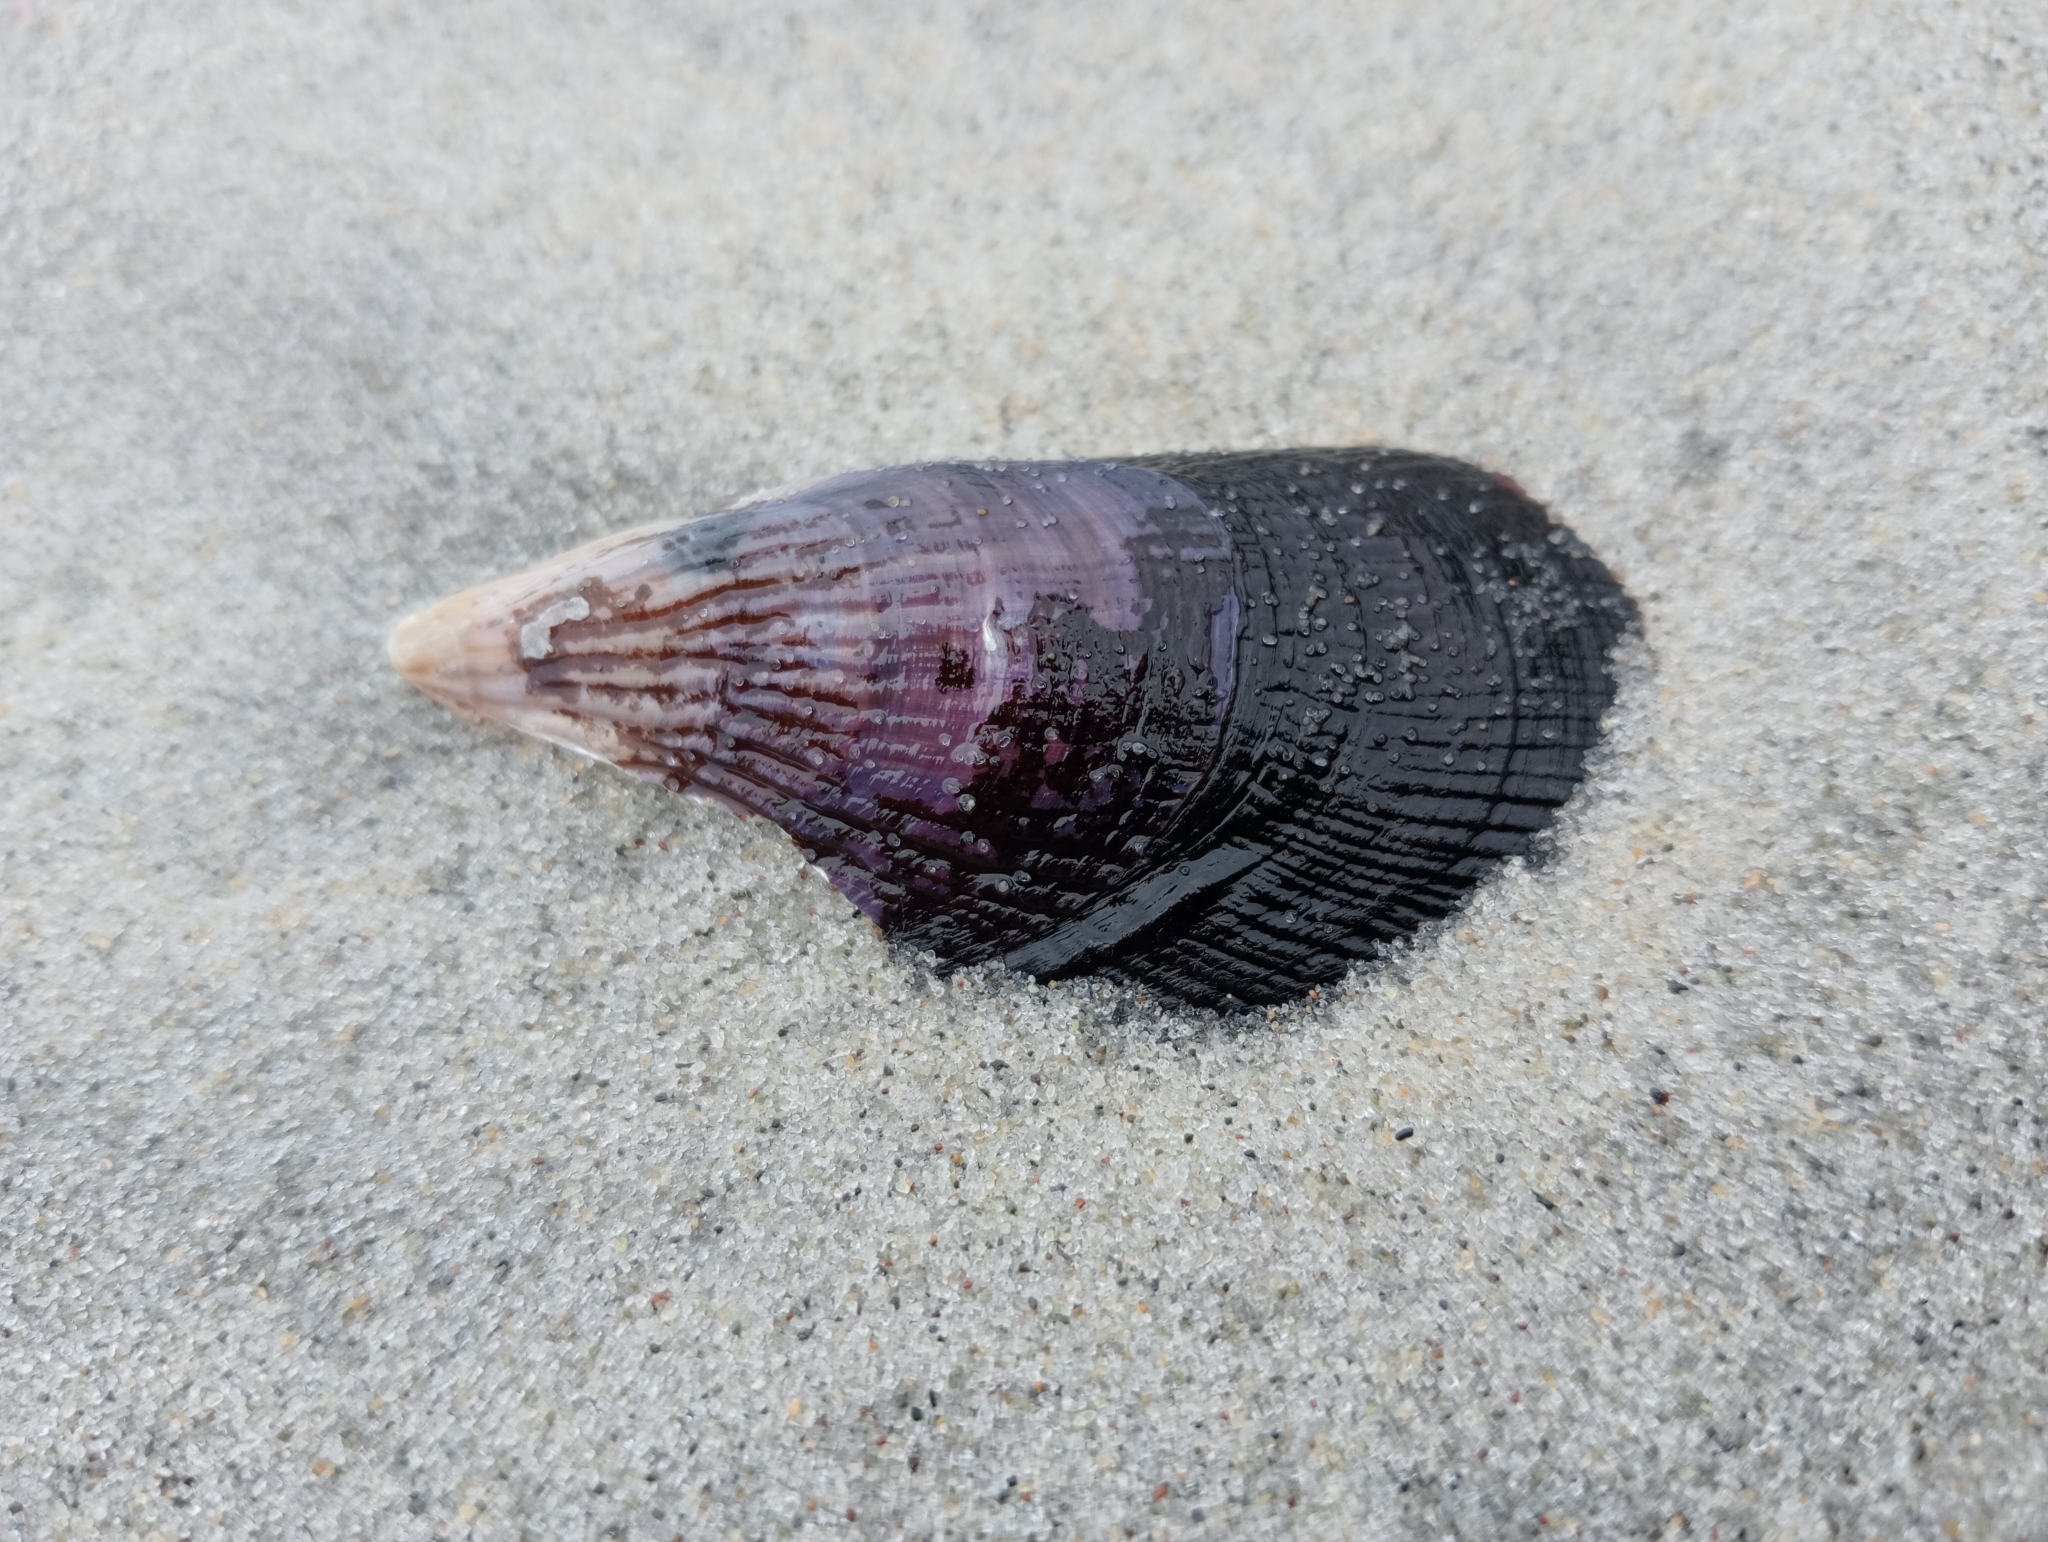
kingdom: Animalia
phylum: Mollusca
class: Bivalvia
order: Mytilida
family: Mytilidae
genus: Aulacomya
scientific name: Aulacomya maoriana
